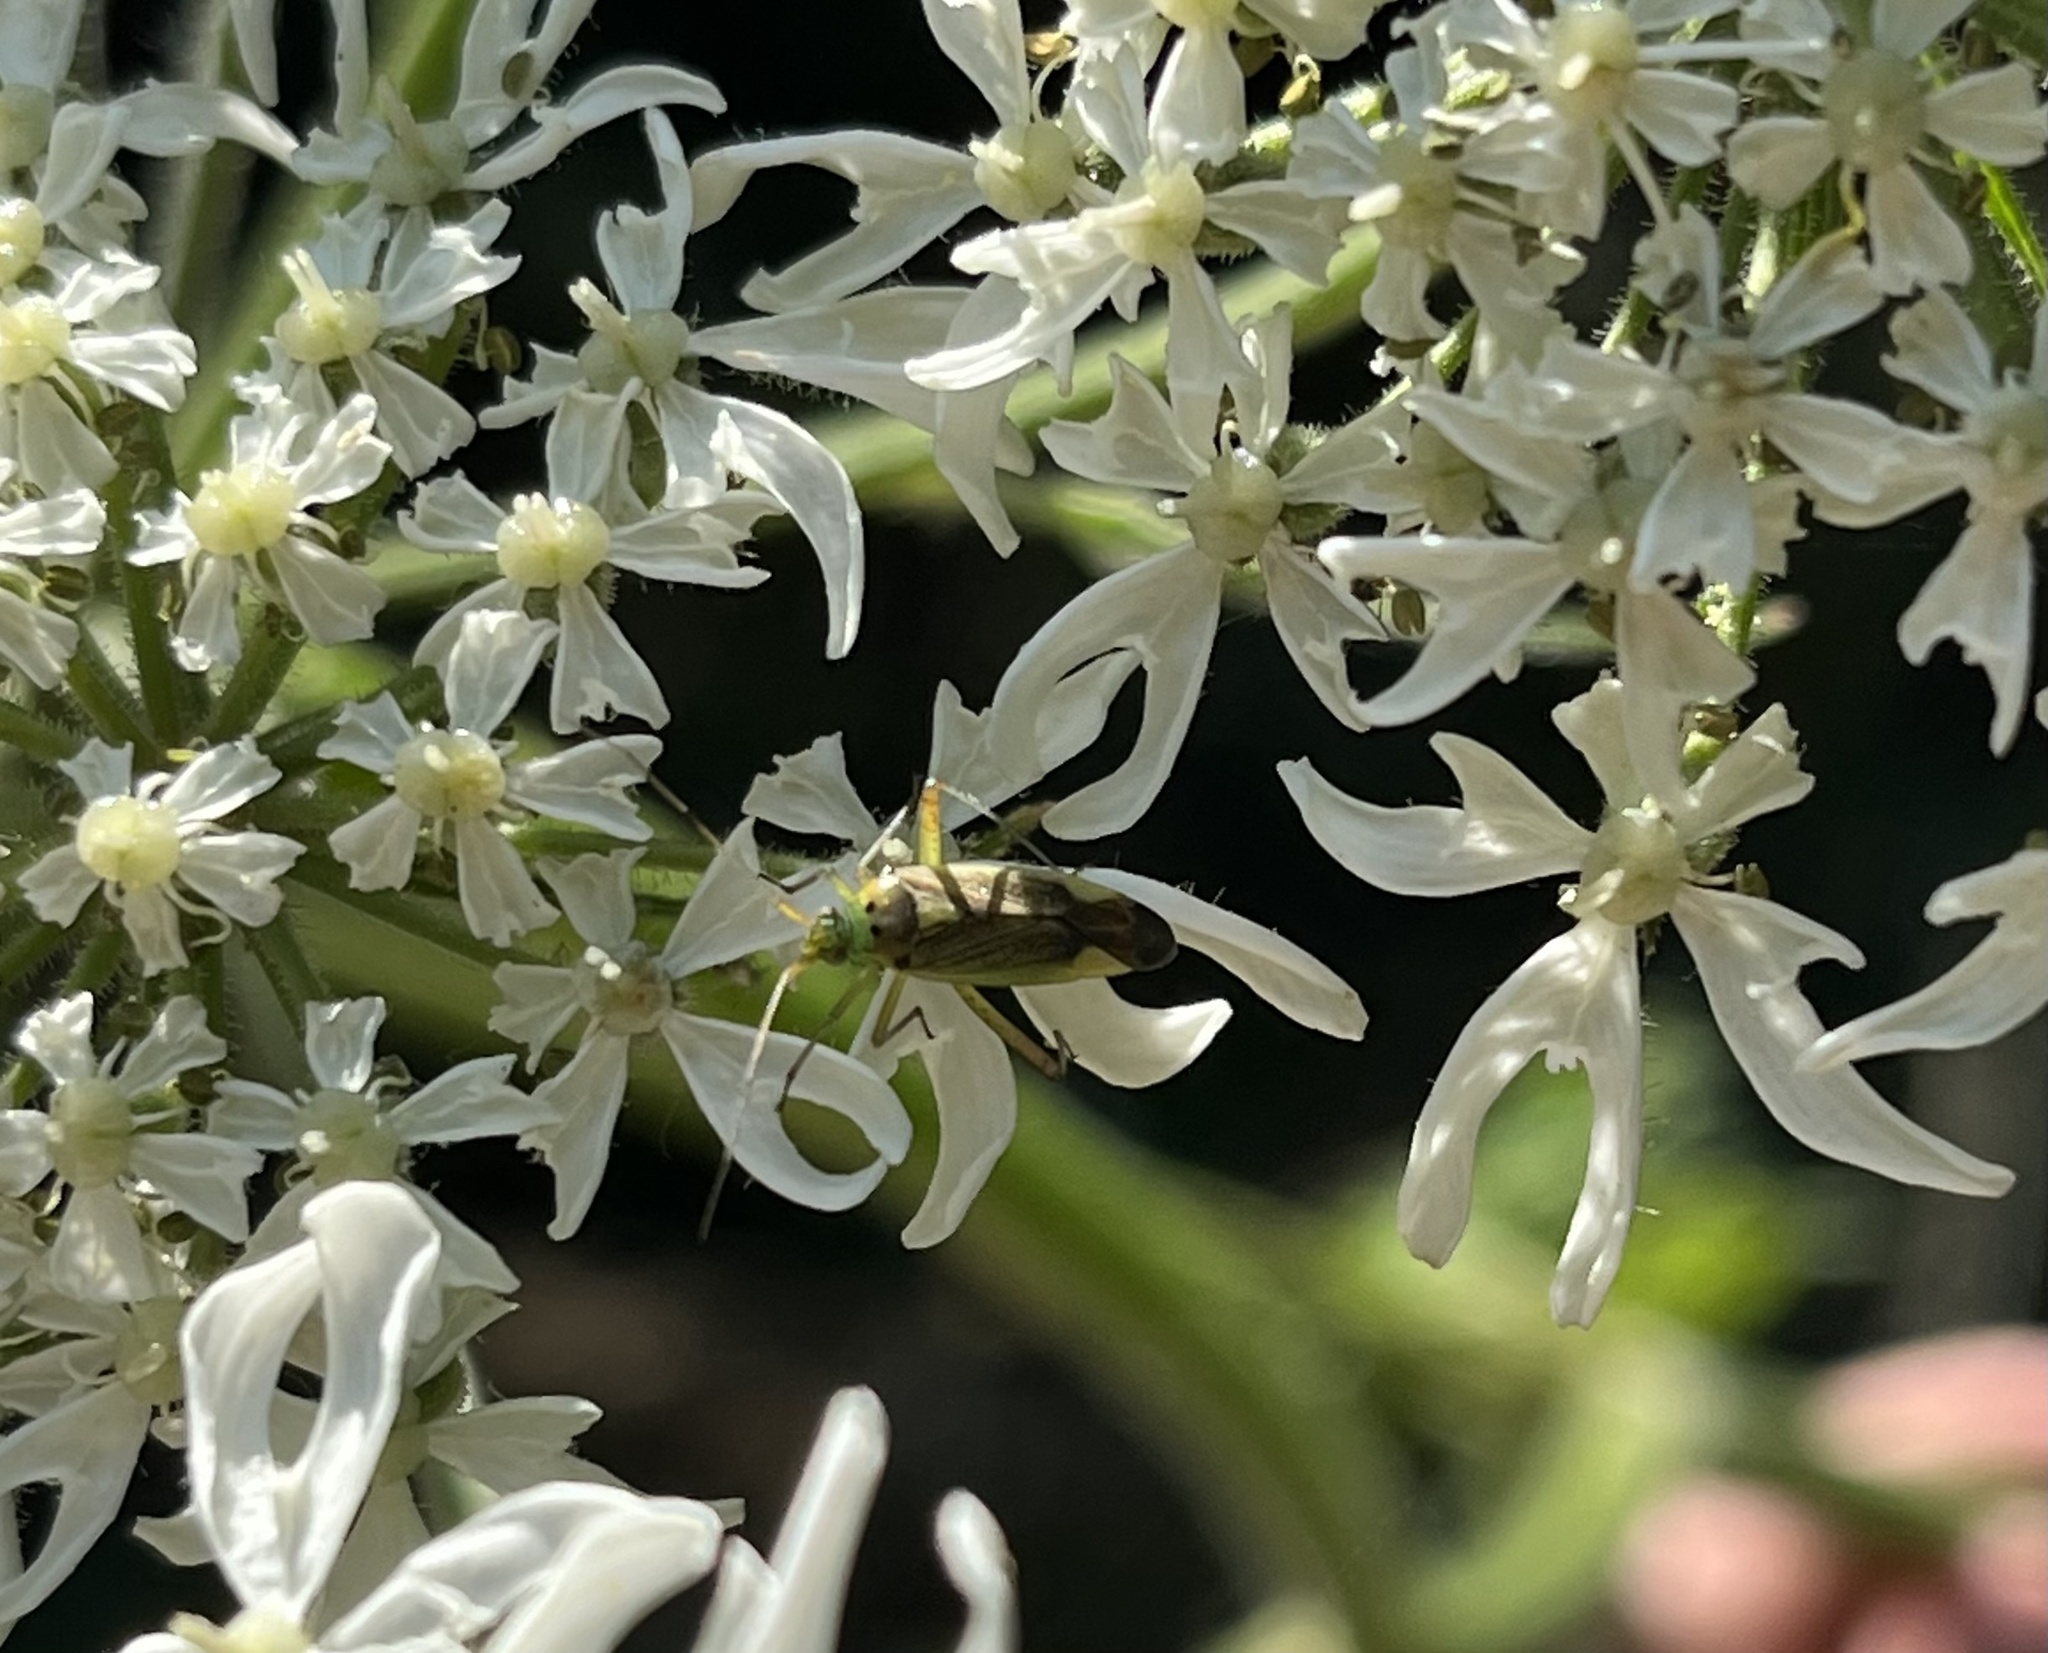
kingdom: Animalia
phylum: Arthropoda
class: Insecta
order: Hemiptera
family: Miridae
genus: Closterotomus
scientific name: Closterotomus trivialis
